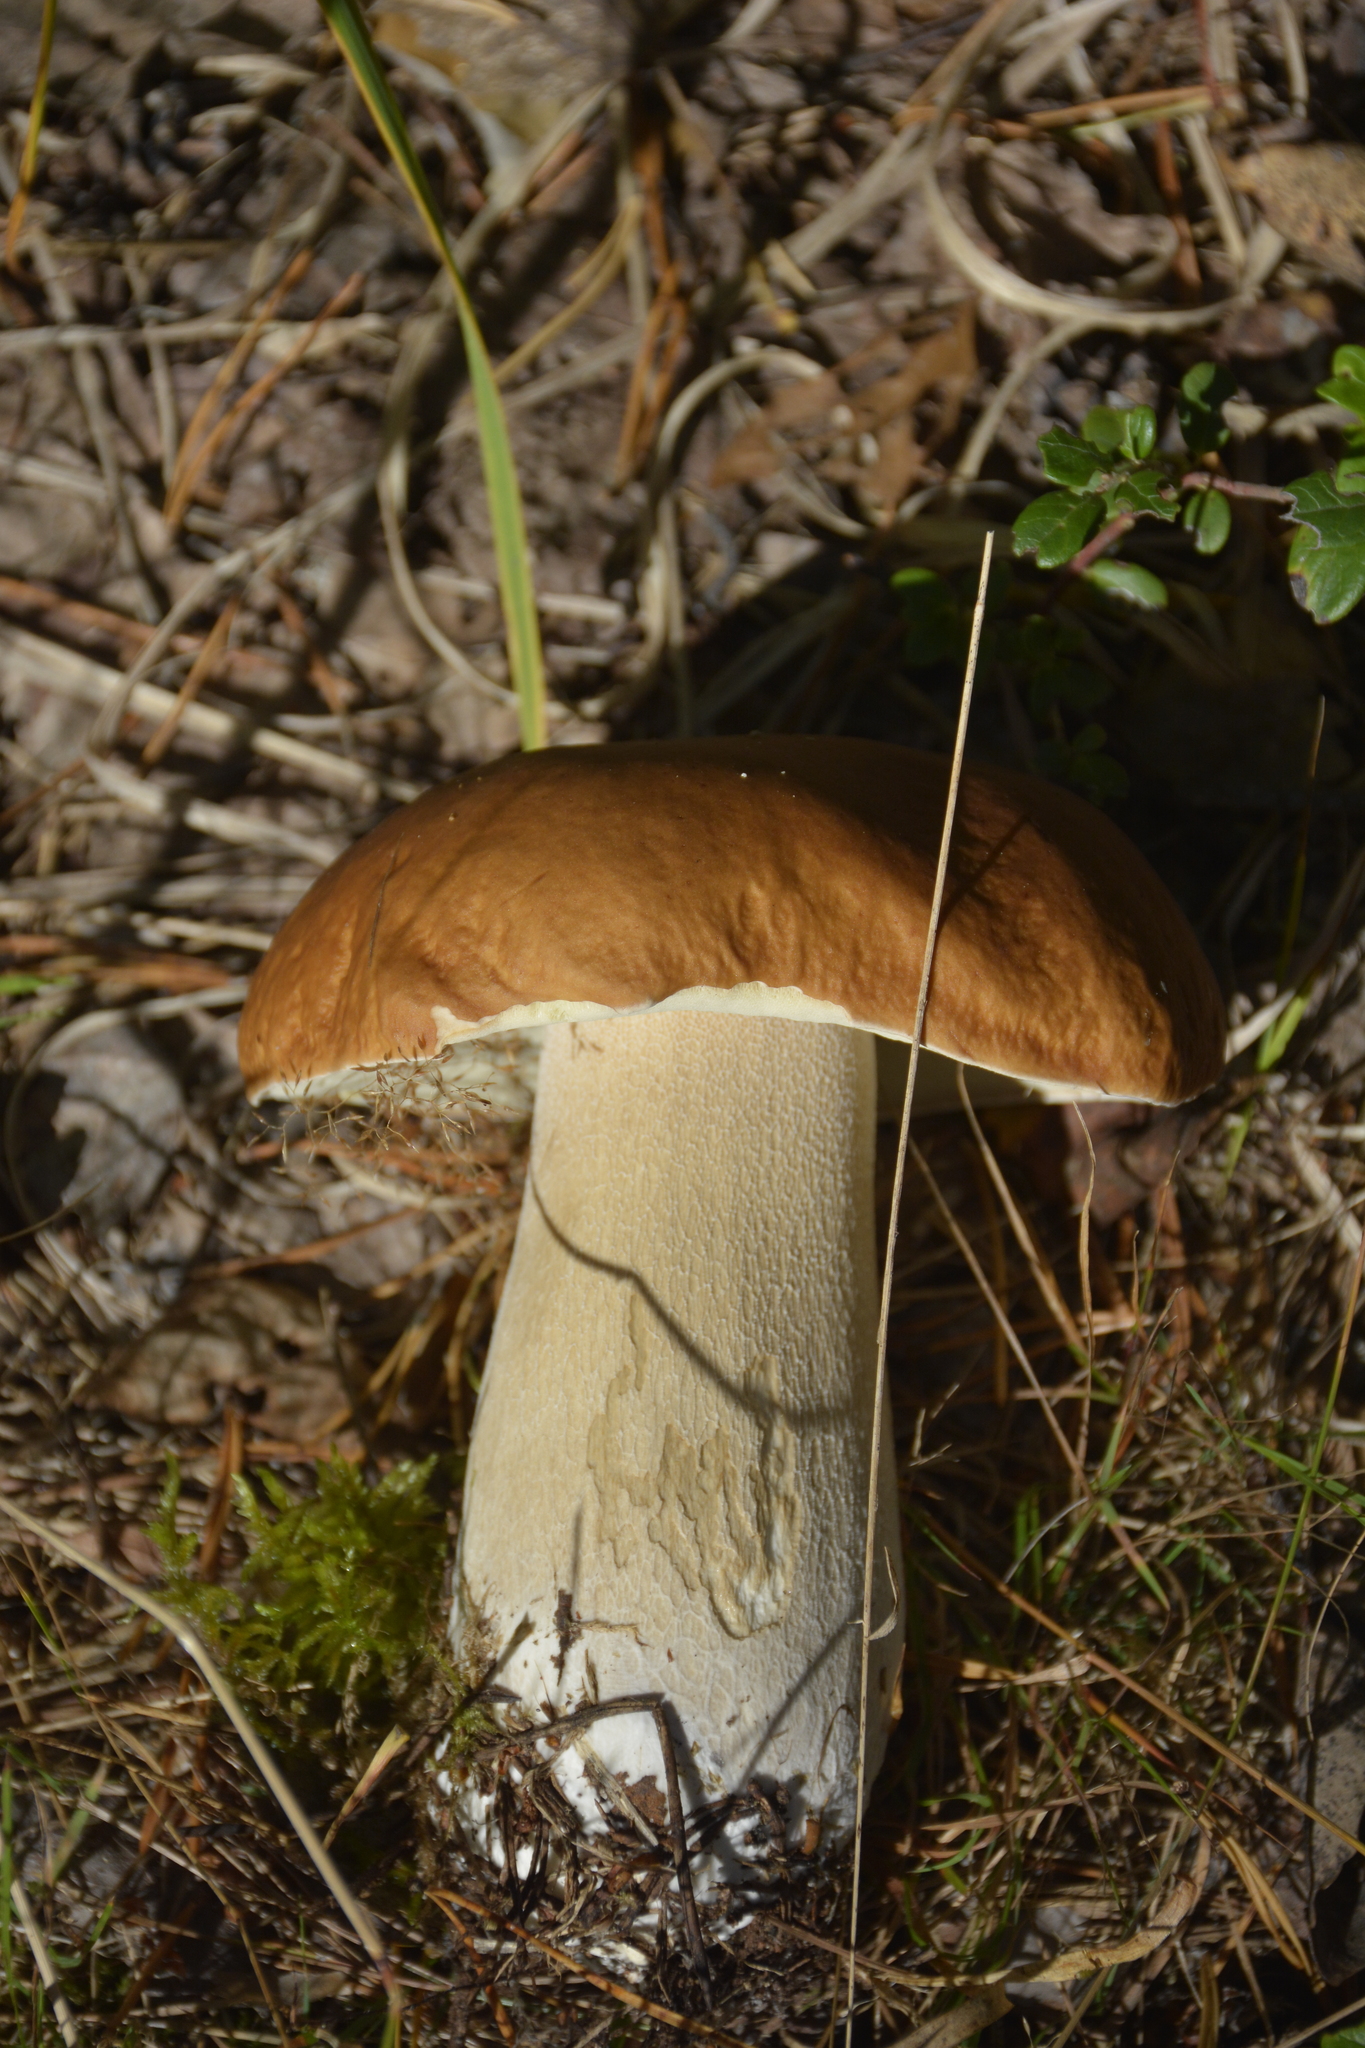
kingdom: Fungi
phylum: Basidiomycota
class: Agaricomycetes
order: Boletales
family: Boletaceae
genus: Boletus
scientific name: Boletus edulis
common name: Cep
